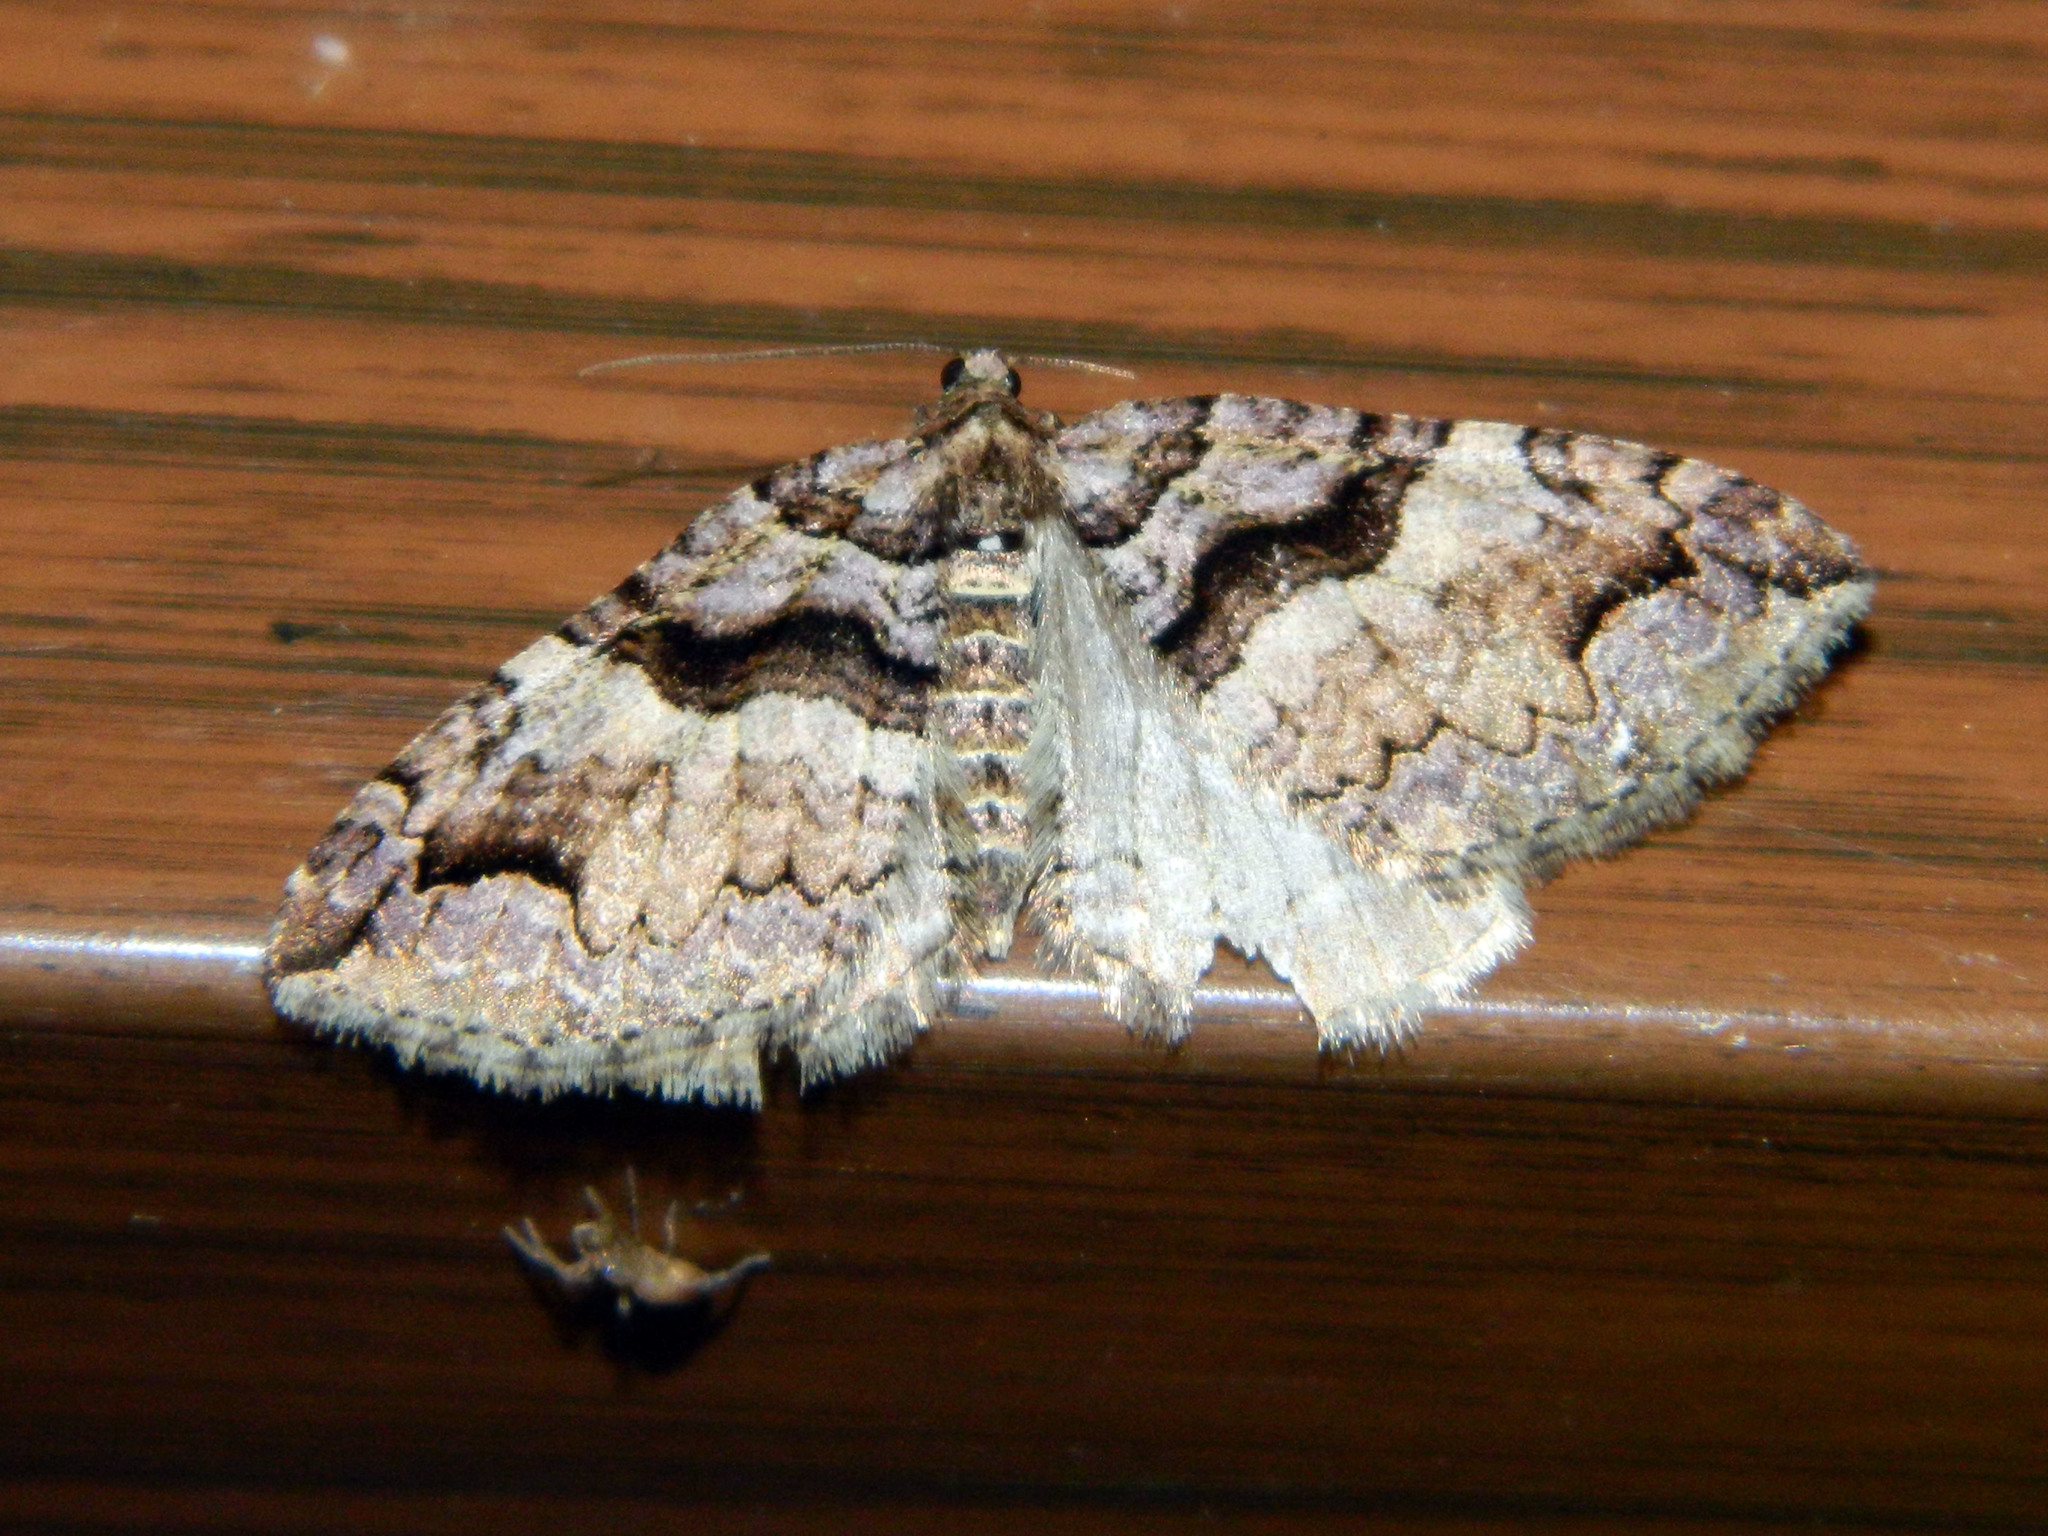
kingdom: Animalia
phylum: Arthropoda
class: Insecta
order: Lepidoptera
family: Geometridae
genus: Anticlea
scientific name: Anticlea vasiliata
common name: Variable carpet
